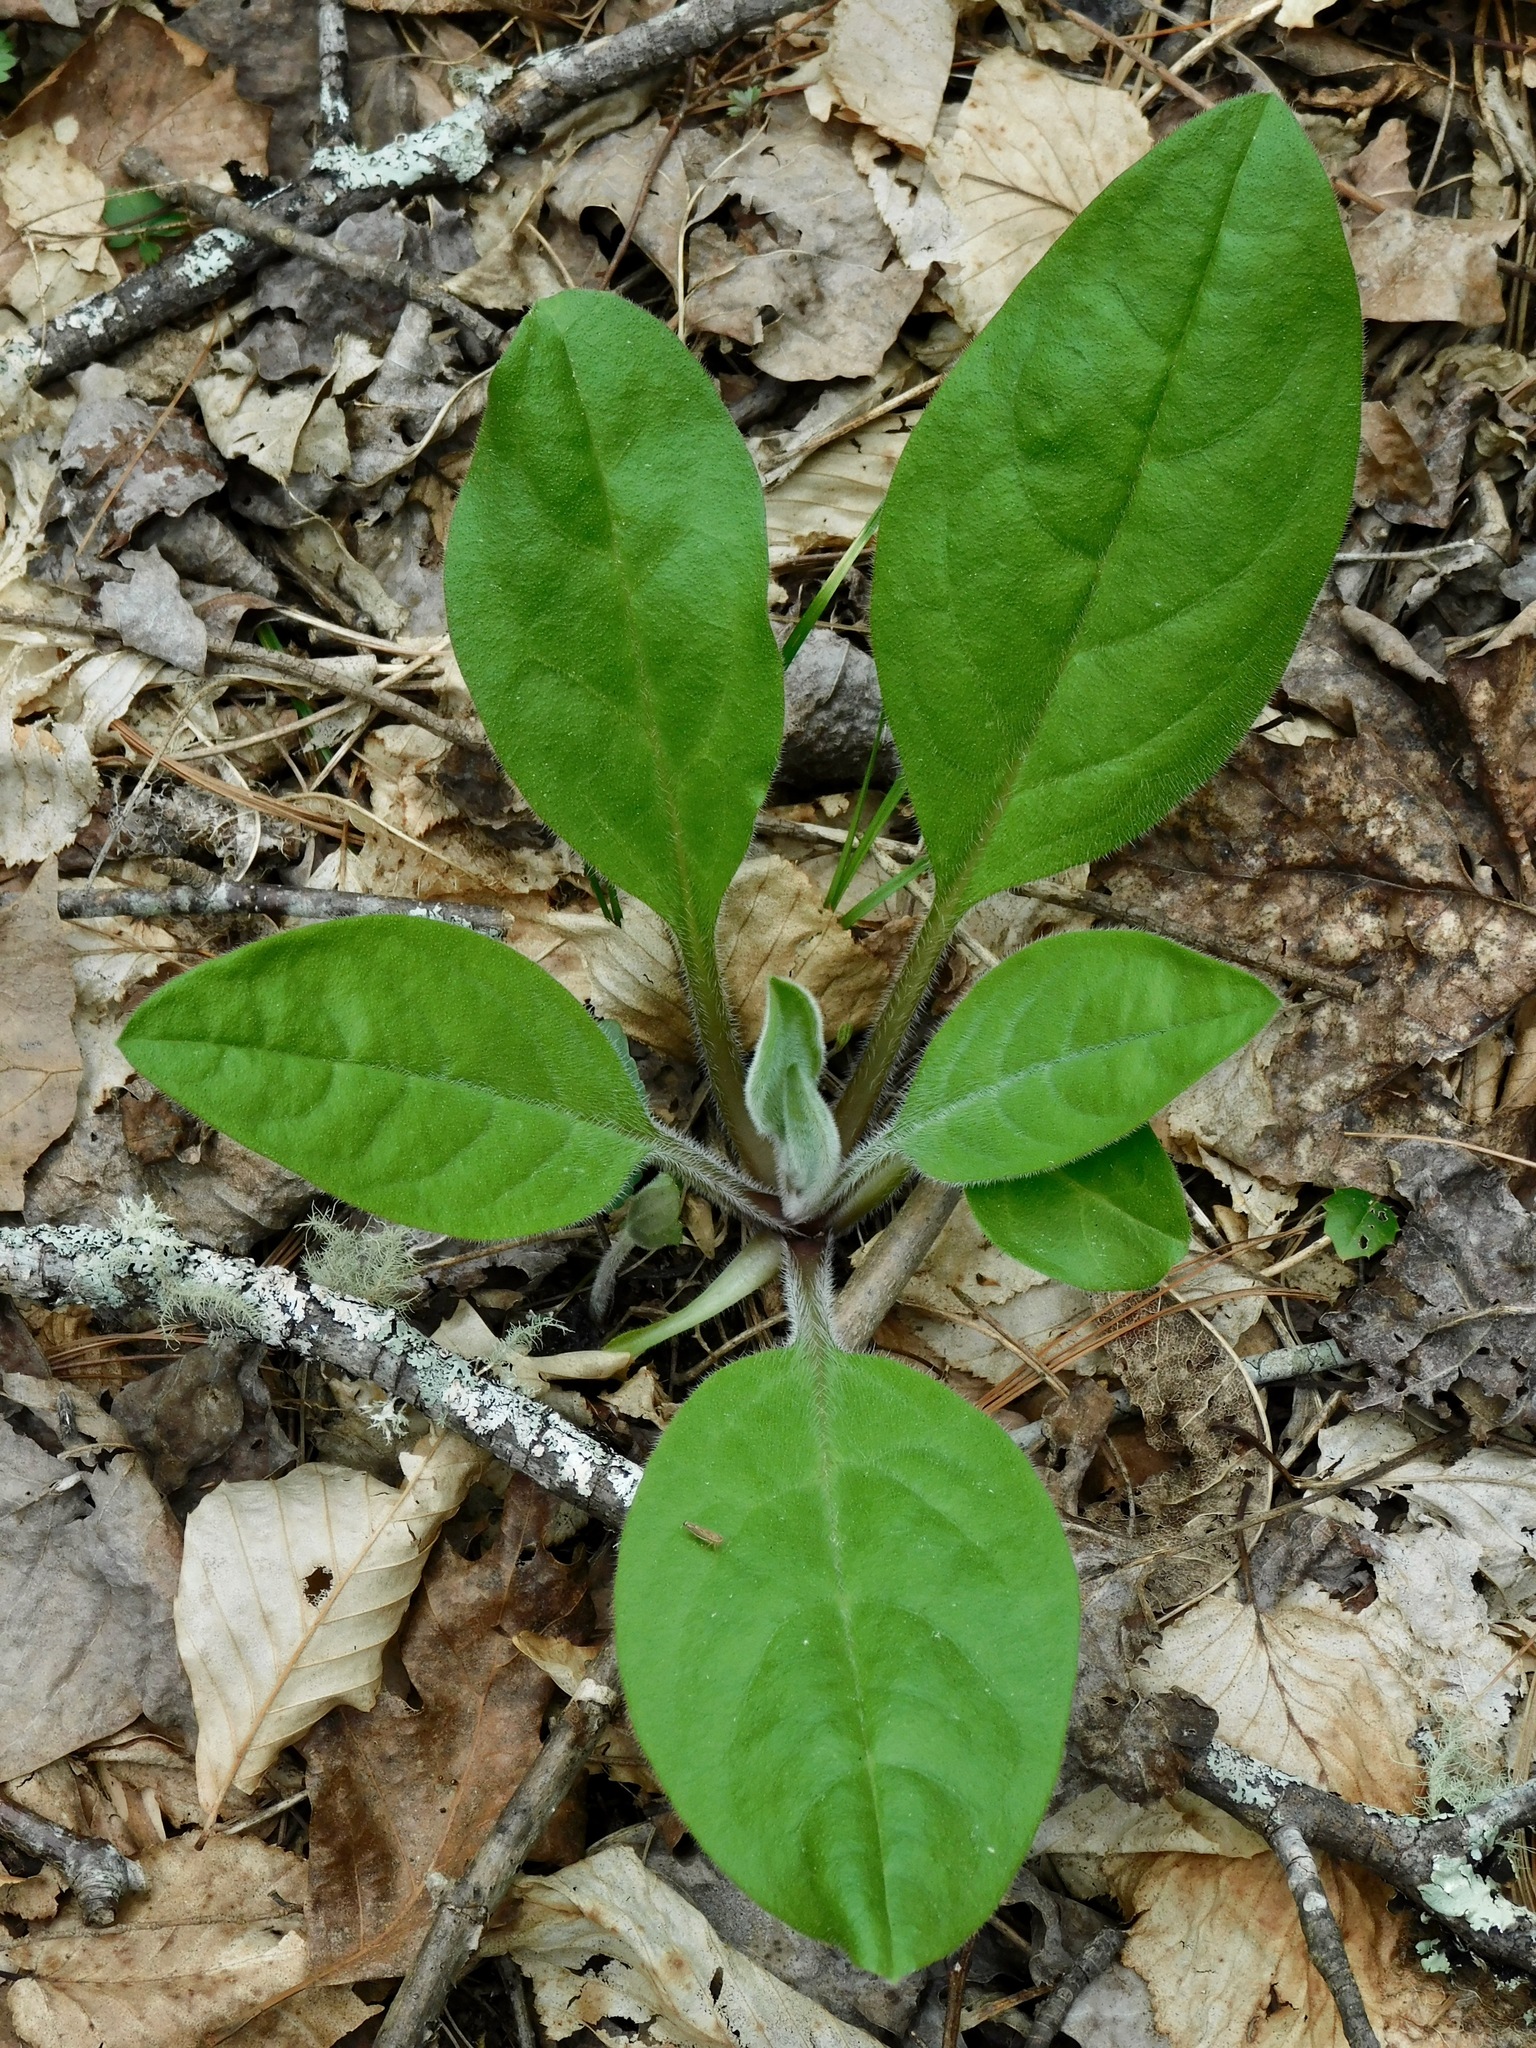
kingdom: Plantae
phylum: Tracheophyta
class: Magnoliopsida
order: Boraginales
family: Boraginaceae
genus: Andersonglossum
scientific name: Andersonglossum virginianum
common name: Wild comfrey
